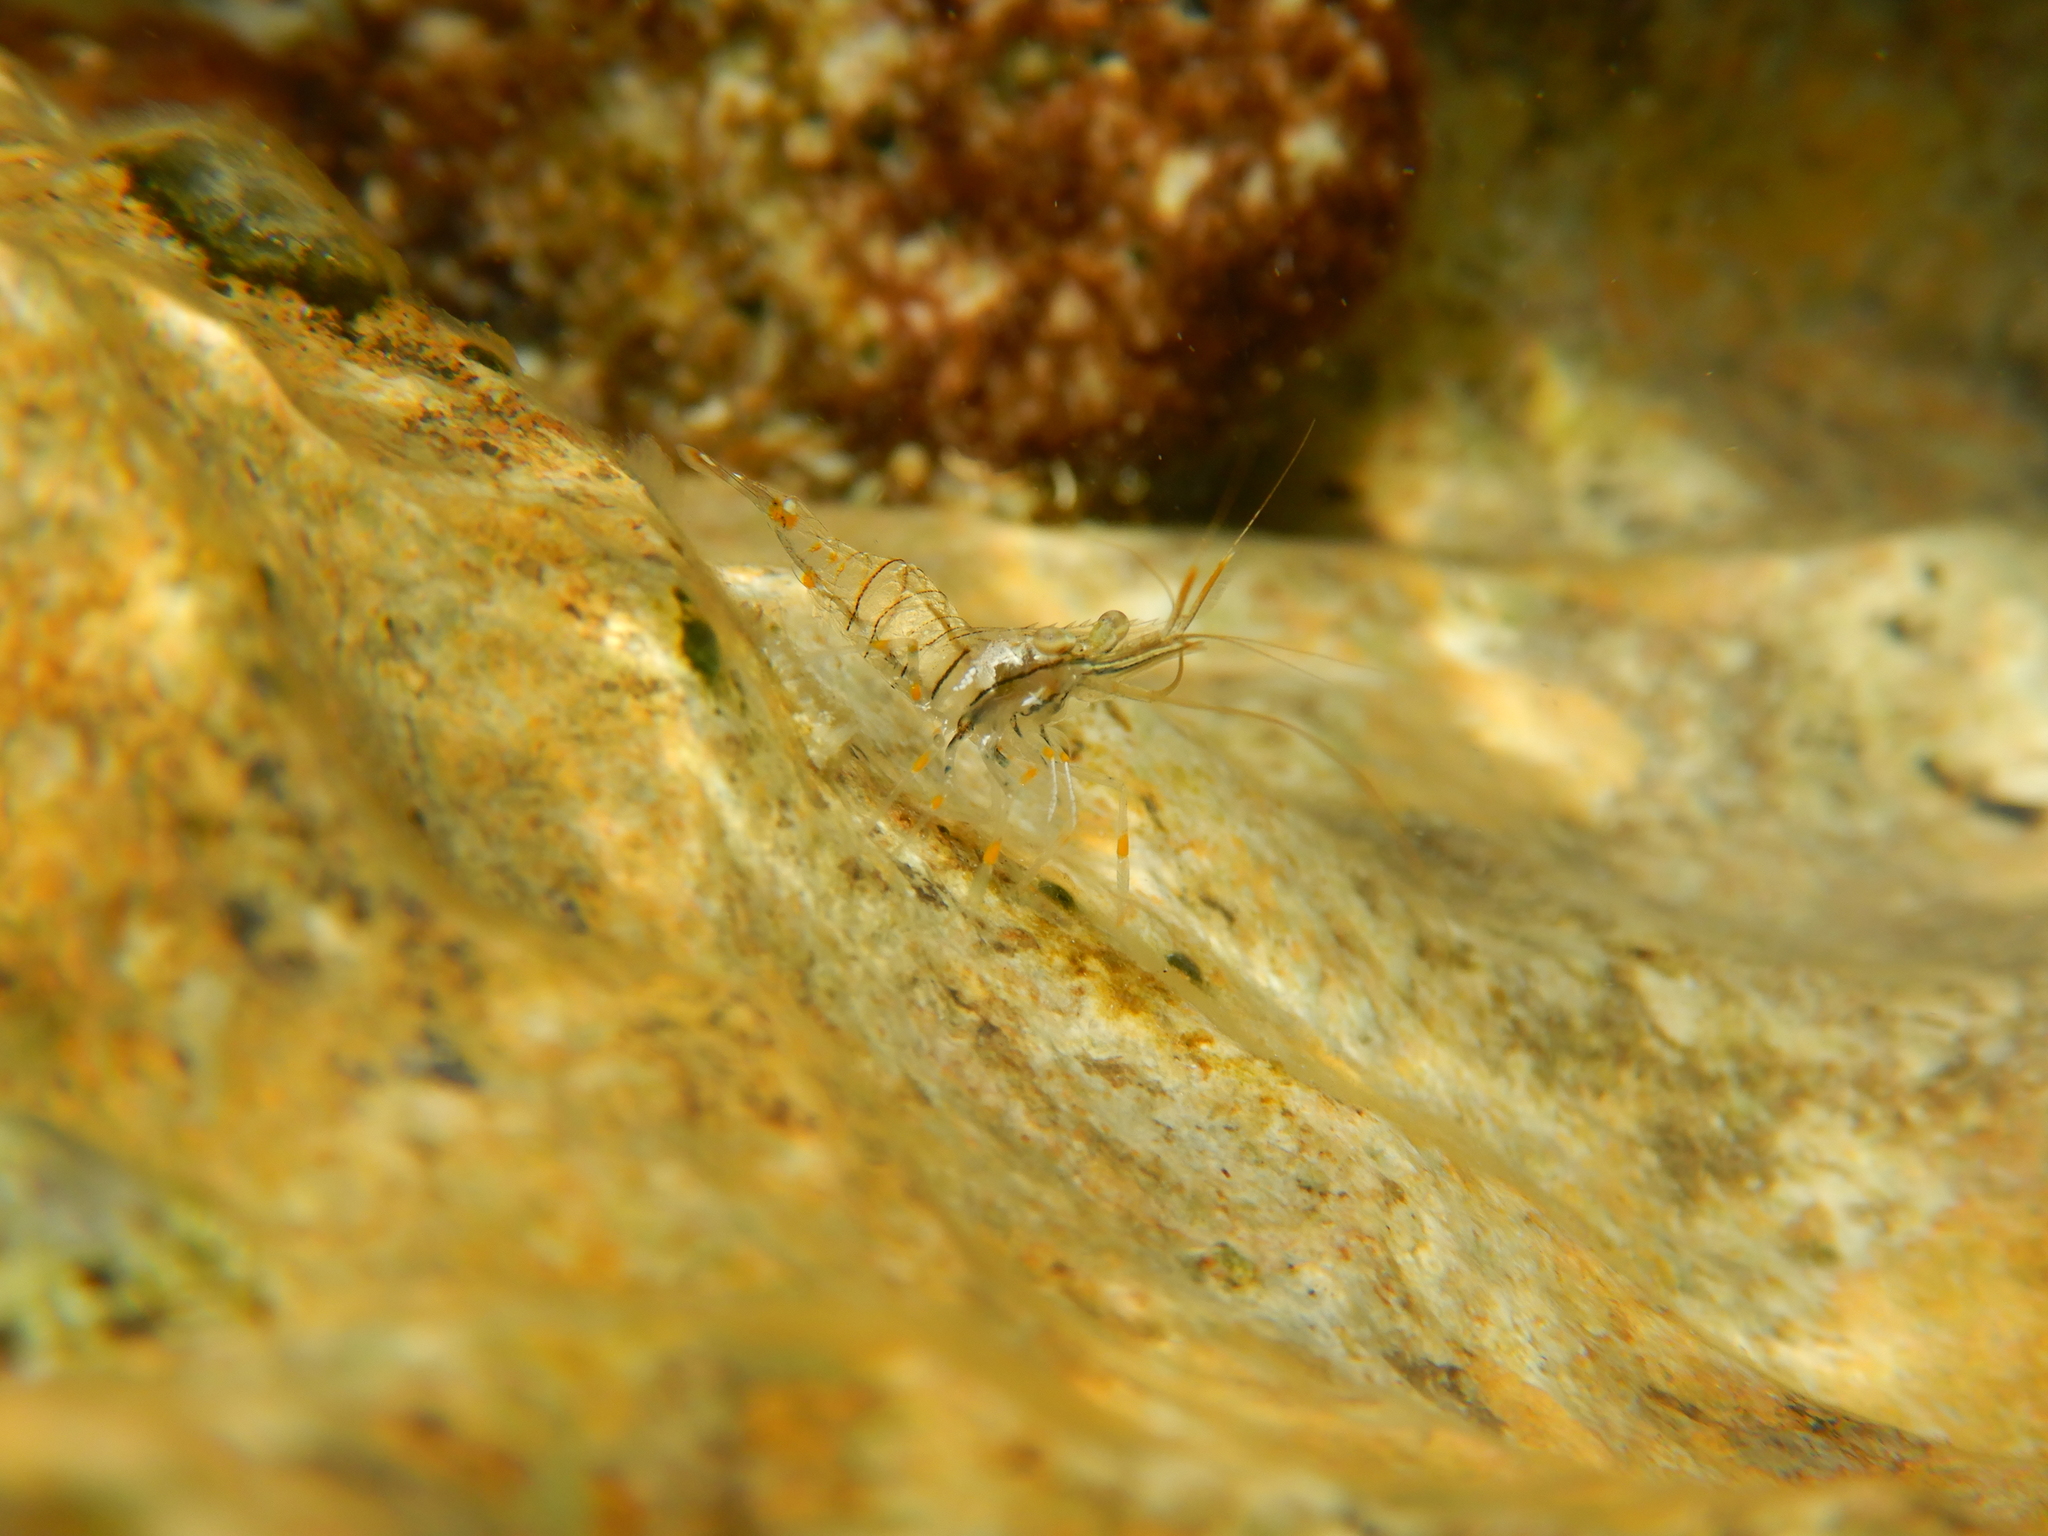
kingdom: Animalia
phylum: Arthropoda
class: Malacostraca
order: Decapoda
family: Palaemonidae
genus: Palaemon
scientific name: Palaemon elegans
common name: Grass prawm
